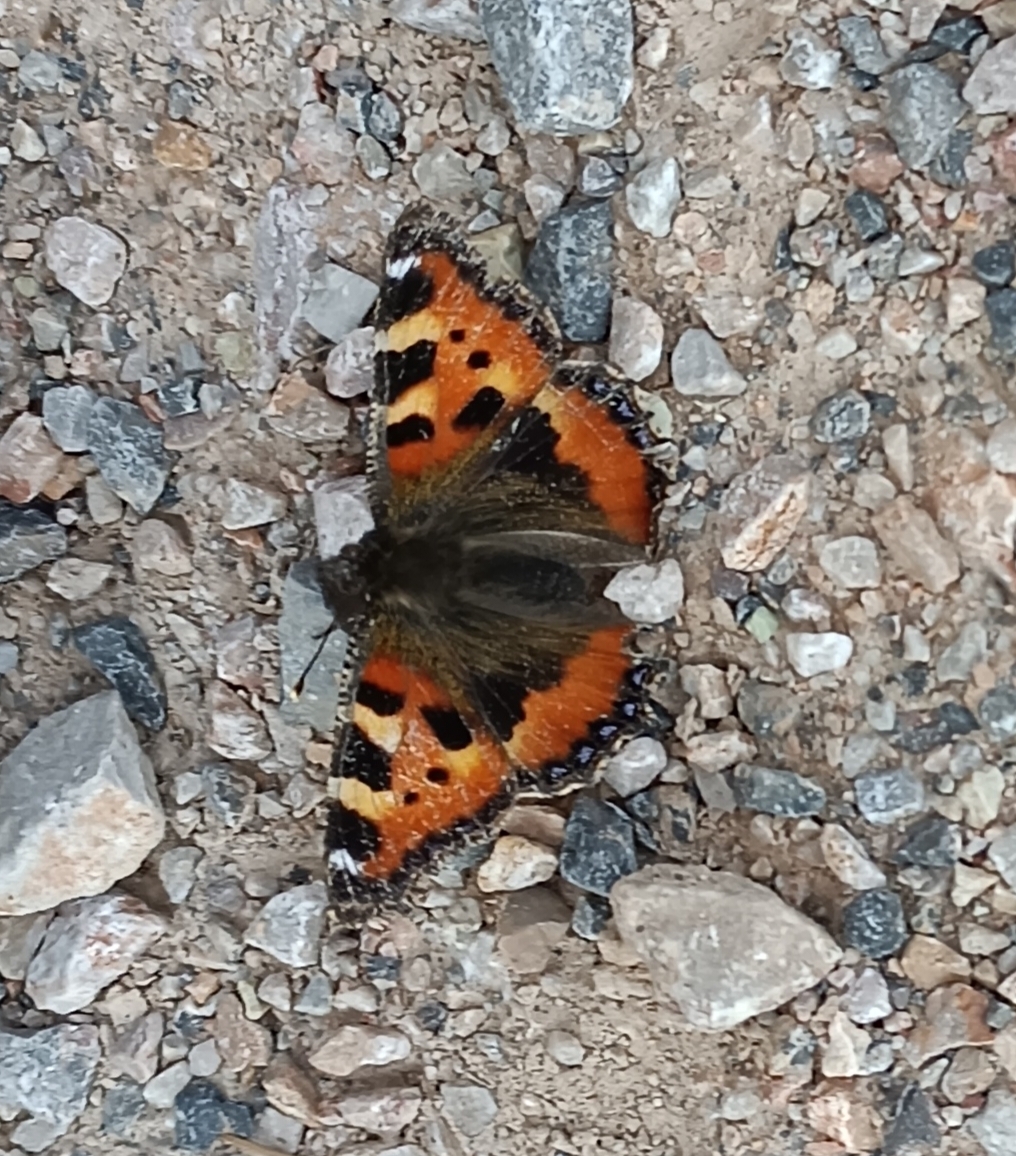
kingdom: Animalia
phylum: Arthropoda
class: Insecta
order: Lepidoptera
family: Nymphalidae
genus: Aglais
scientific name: Aglais urticae
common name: Small tortoiseshell
